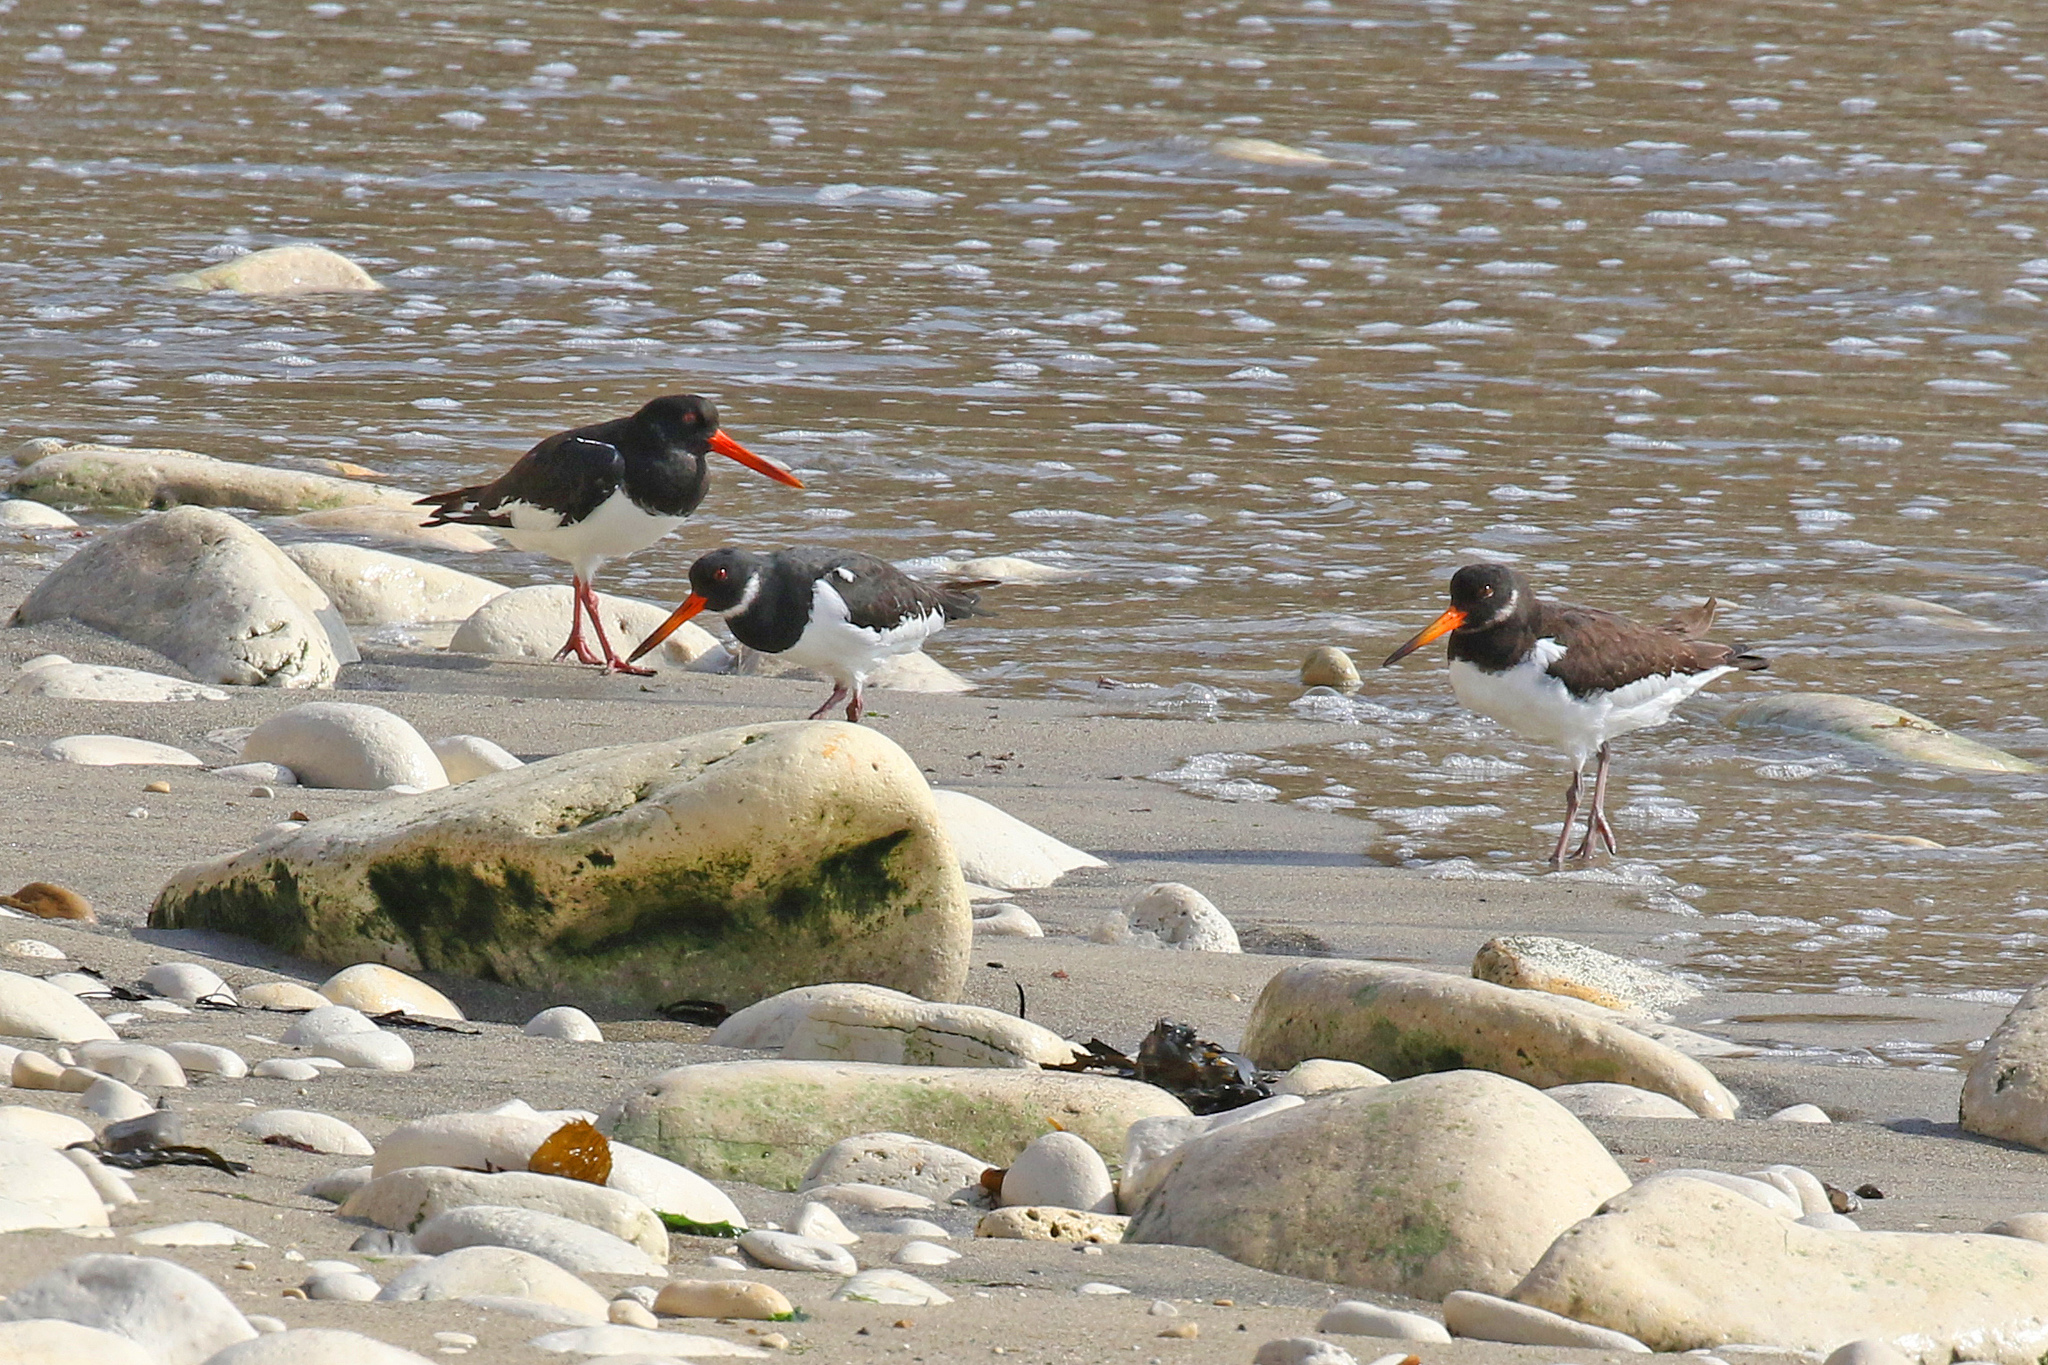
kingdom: Animalia
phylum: Chordata
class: Aves
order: Charadriiformes
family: Haematopodidae
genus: Haematopus
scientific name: Haematopus ostralegus
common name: Eurasian oystercatcher
